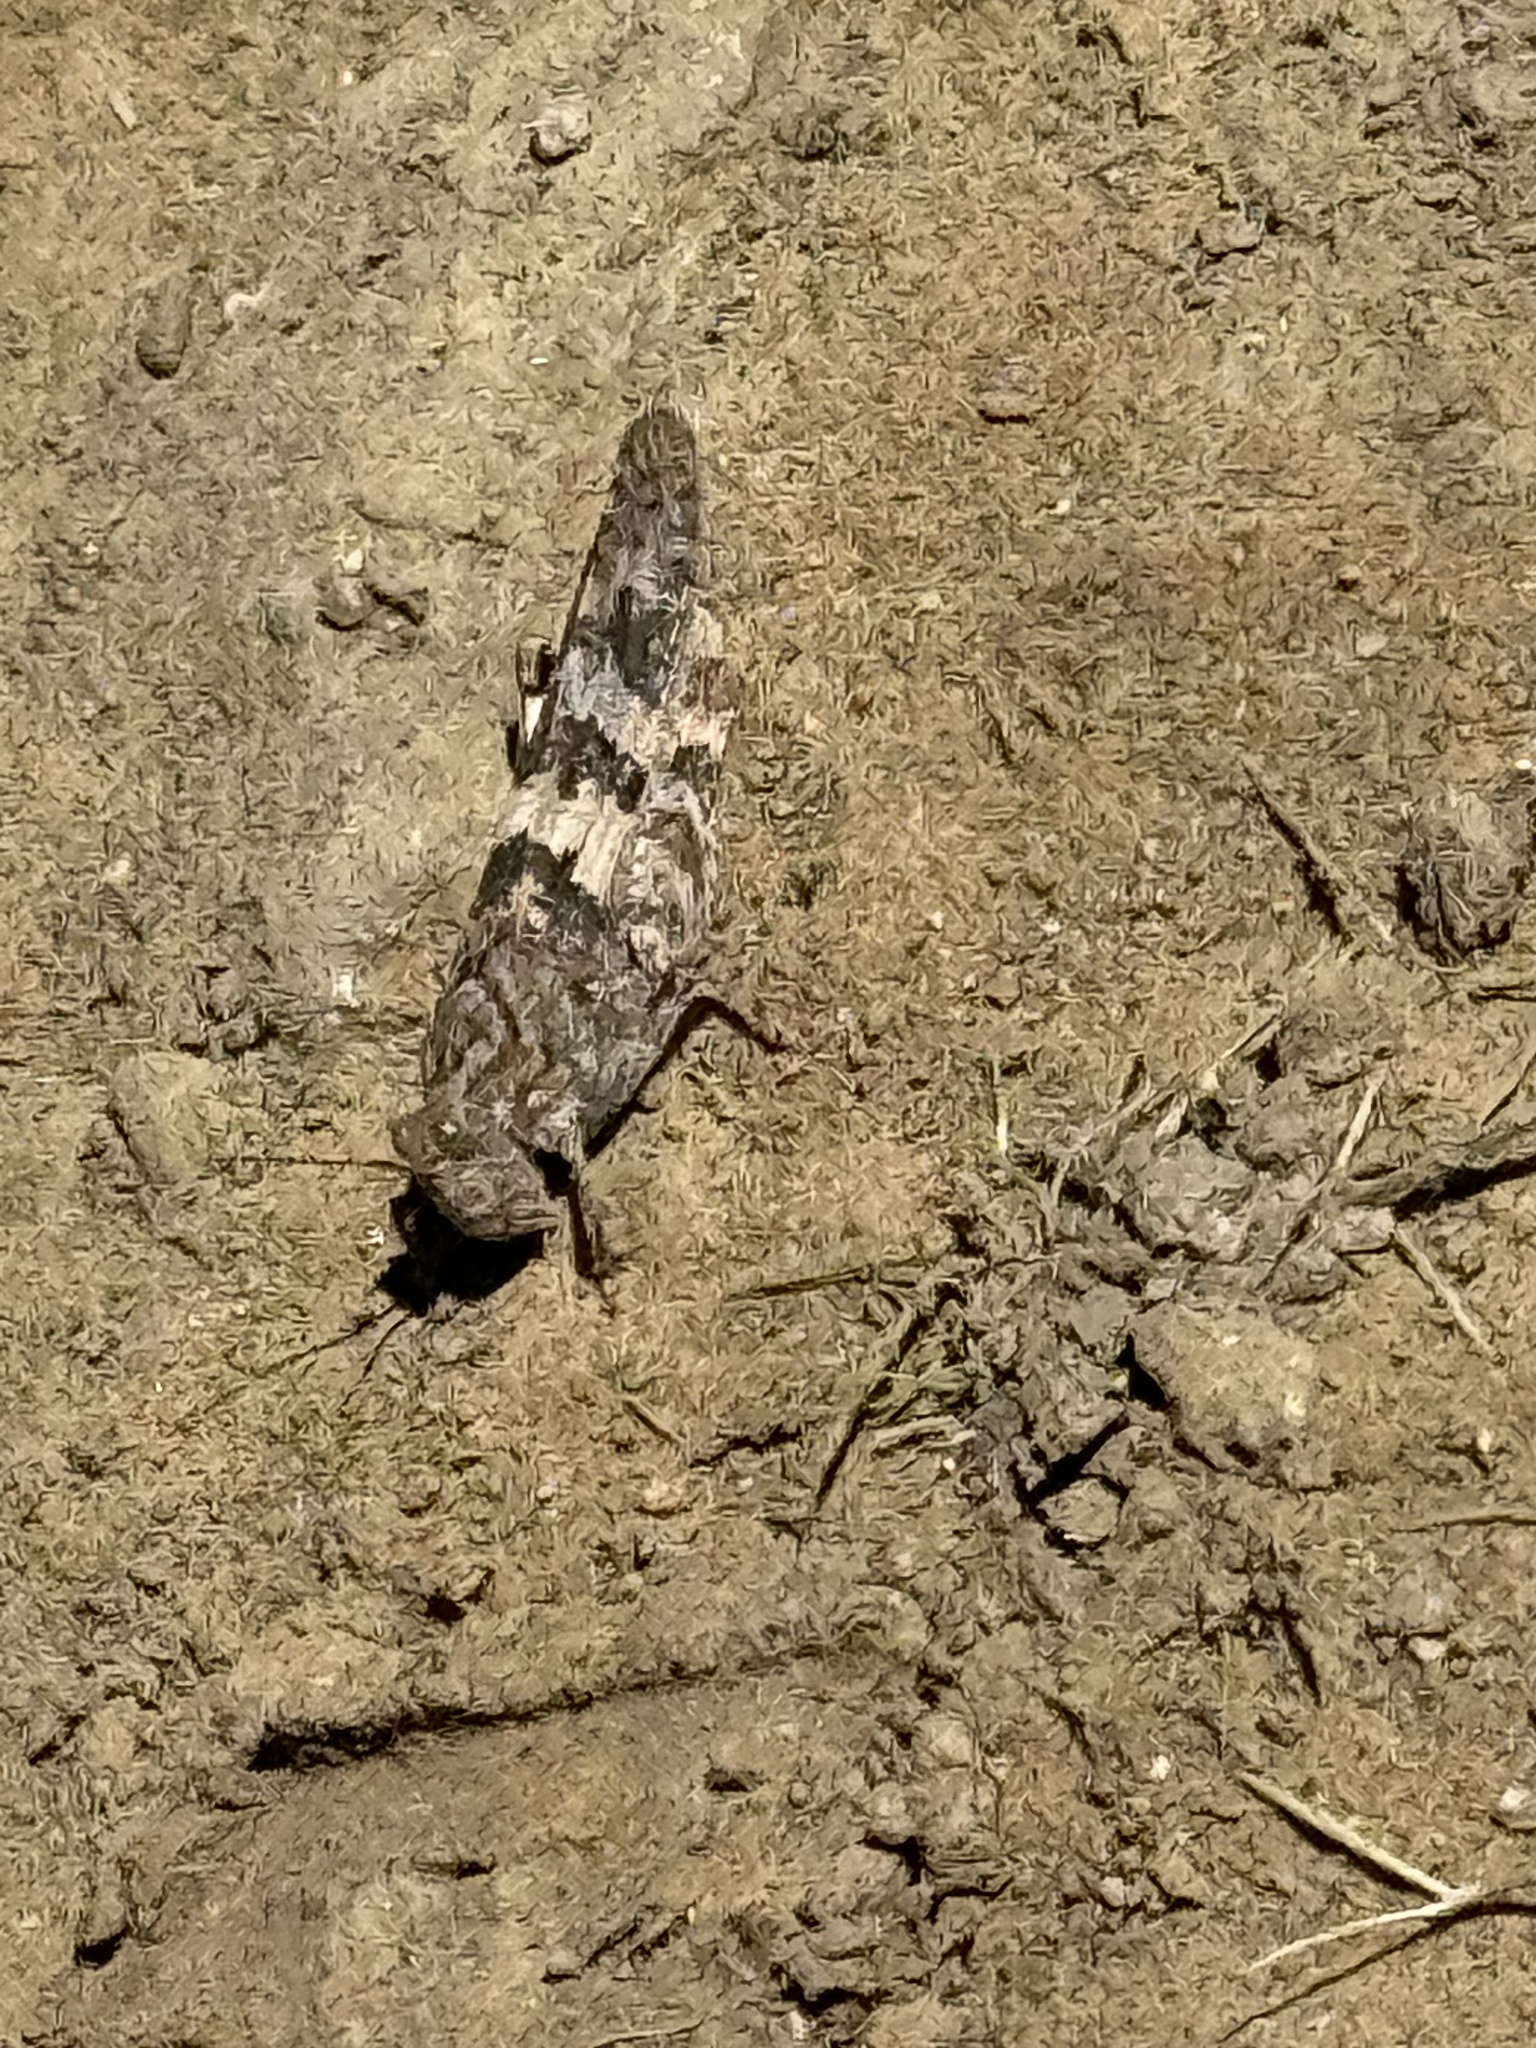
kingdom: Animalia
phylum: Arthropoda
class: Insecta
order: Orthoptera
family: Acrididae
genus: Trimerotropis
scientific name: Trimerotropis pallidipennis
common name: Pallid-winged grasshopper
